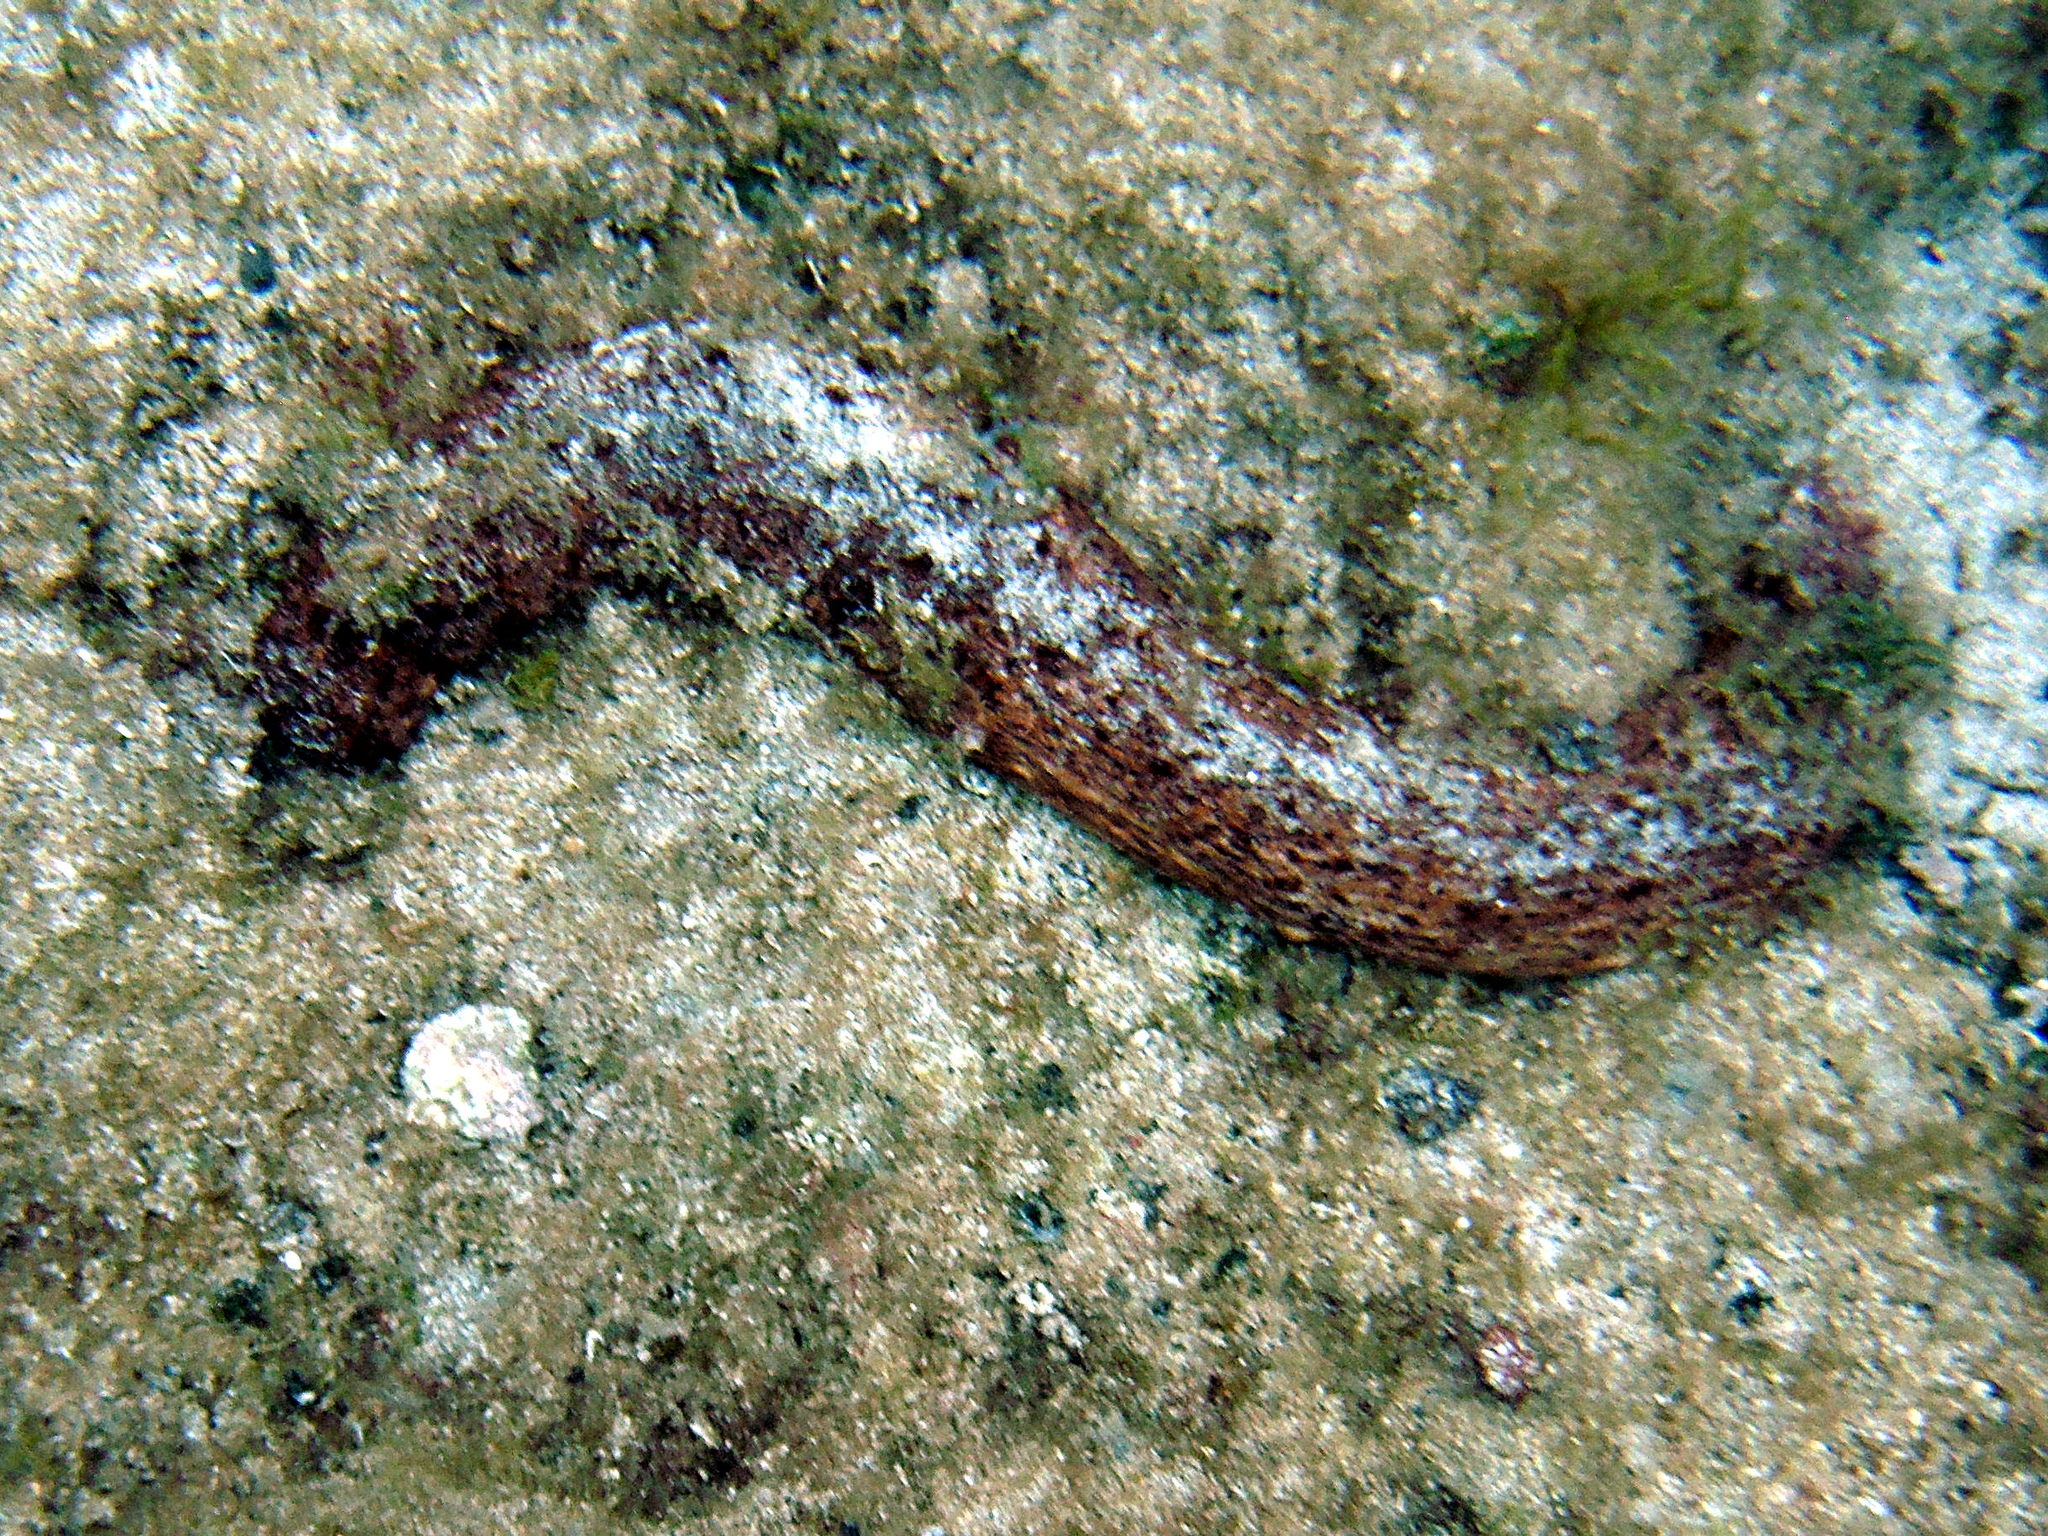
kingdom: Animalia
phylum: Echinodermata
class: Holothuroidea
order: Holothuriida
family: Holothuriidae
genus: Holothuria
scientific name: Holothuria mammata
